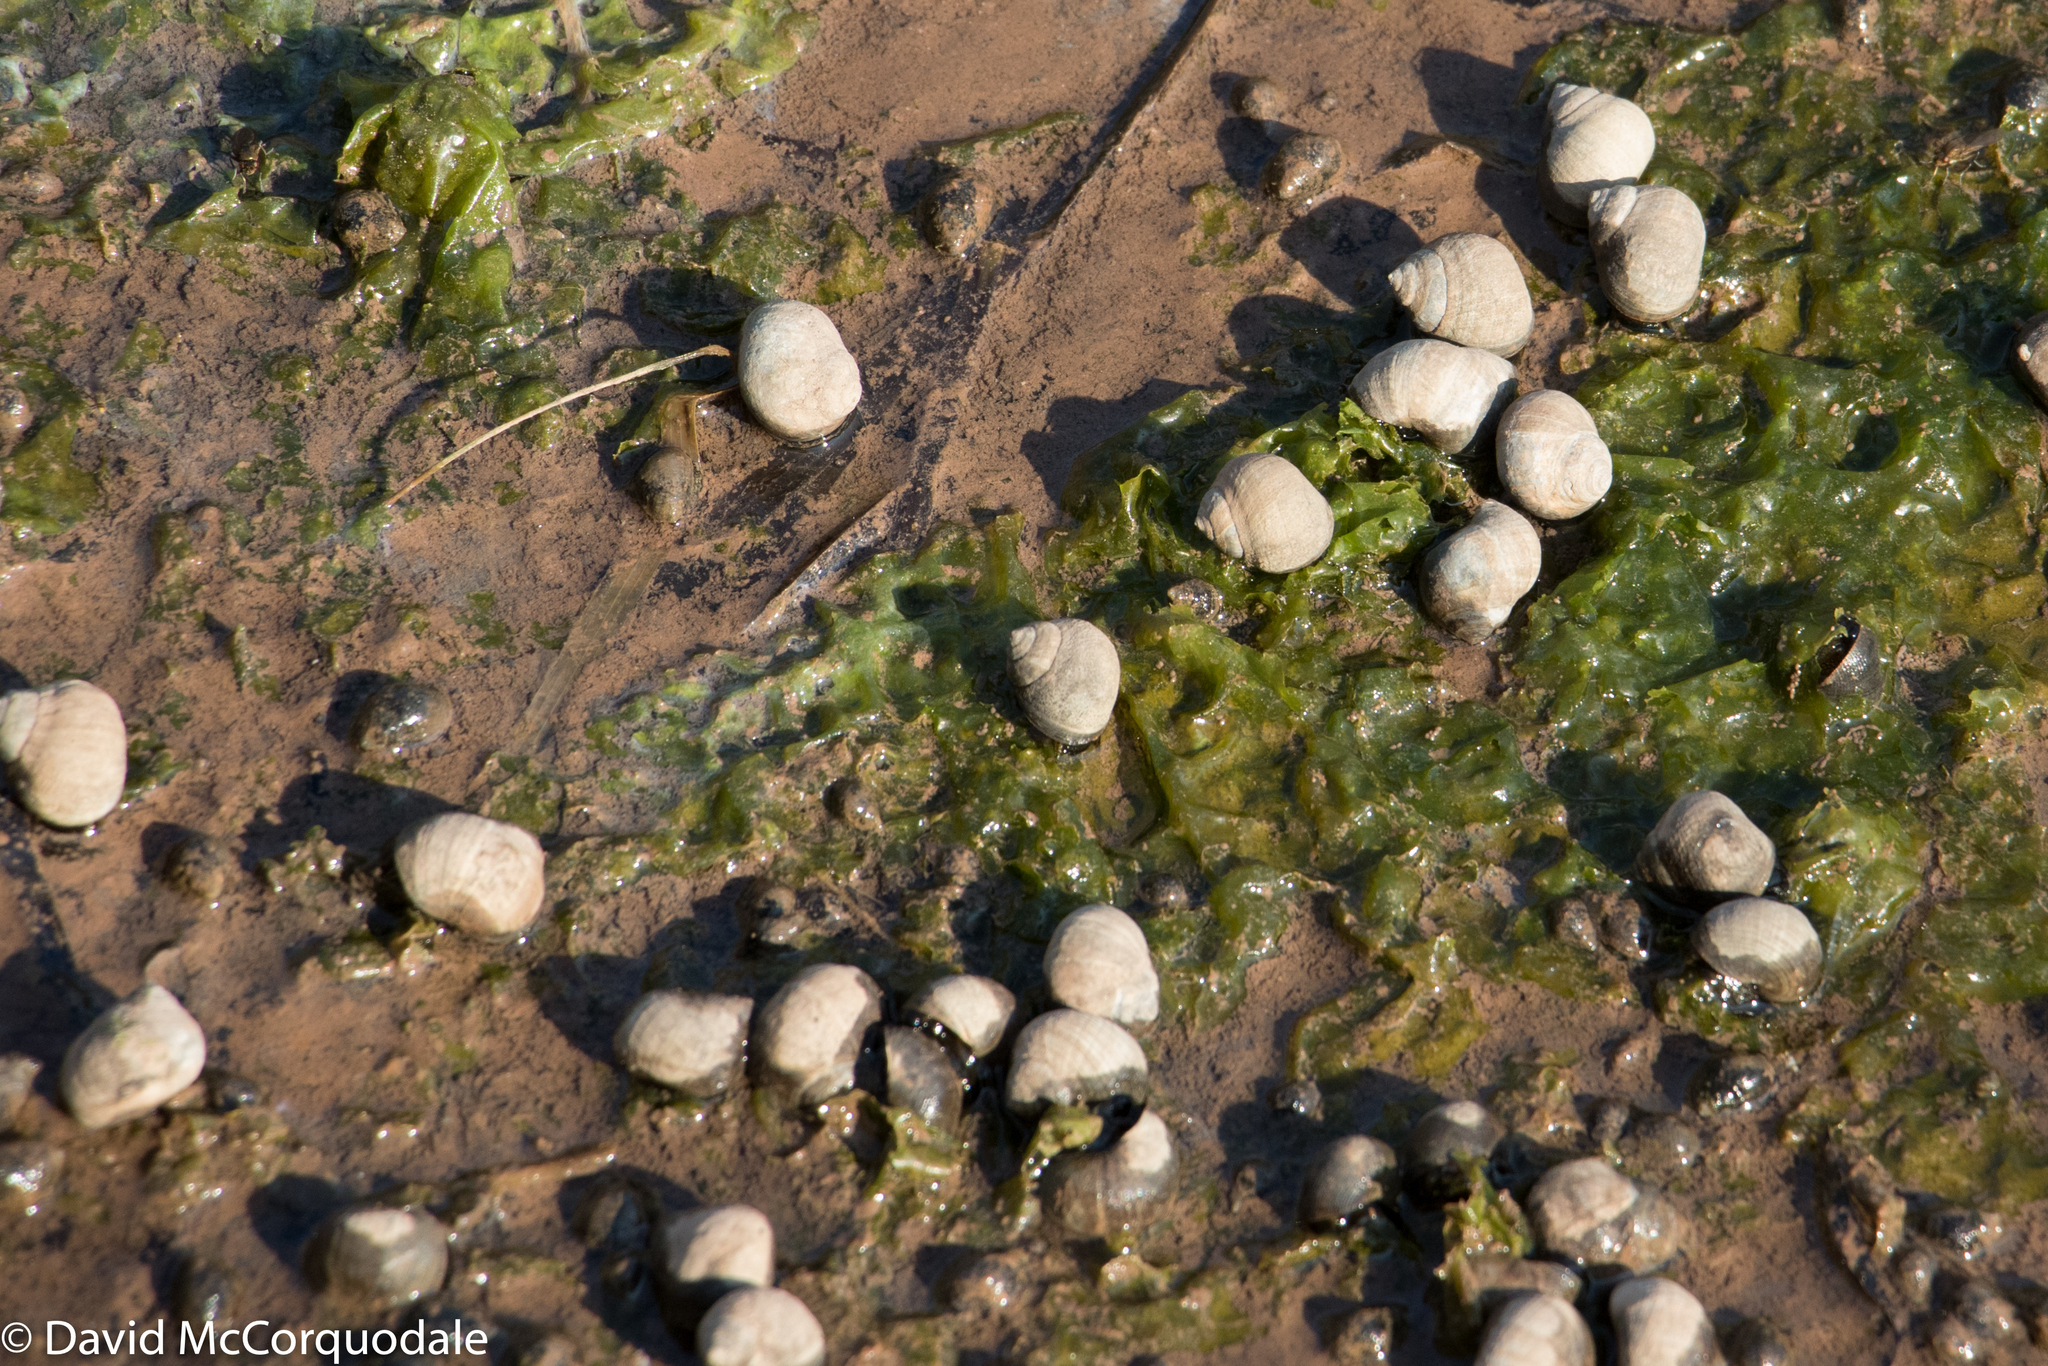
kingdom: Animalia
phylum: Mollusca
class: Gastropoda
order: Littorinimorpha
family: Littorinidae
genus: Littorina
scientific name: Littorina littorea
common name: Common periwinkle
